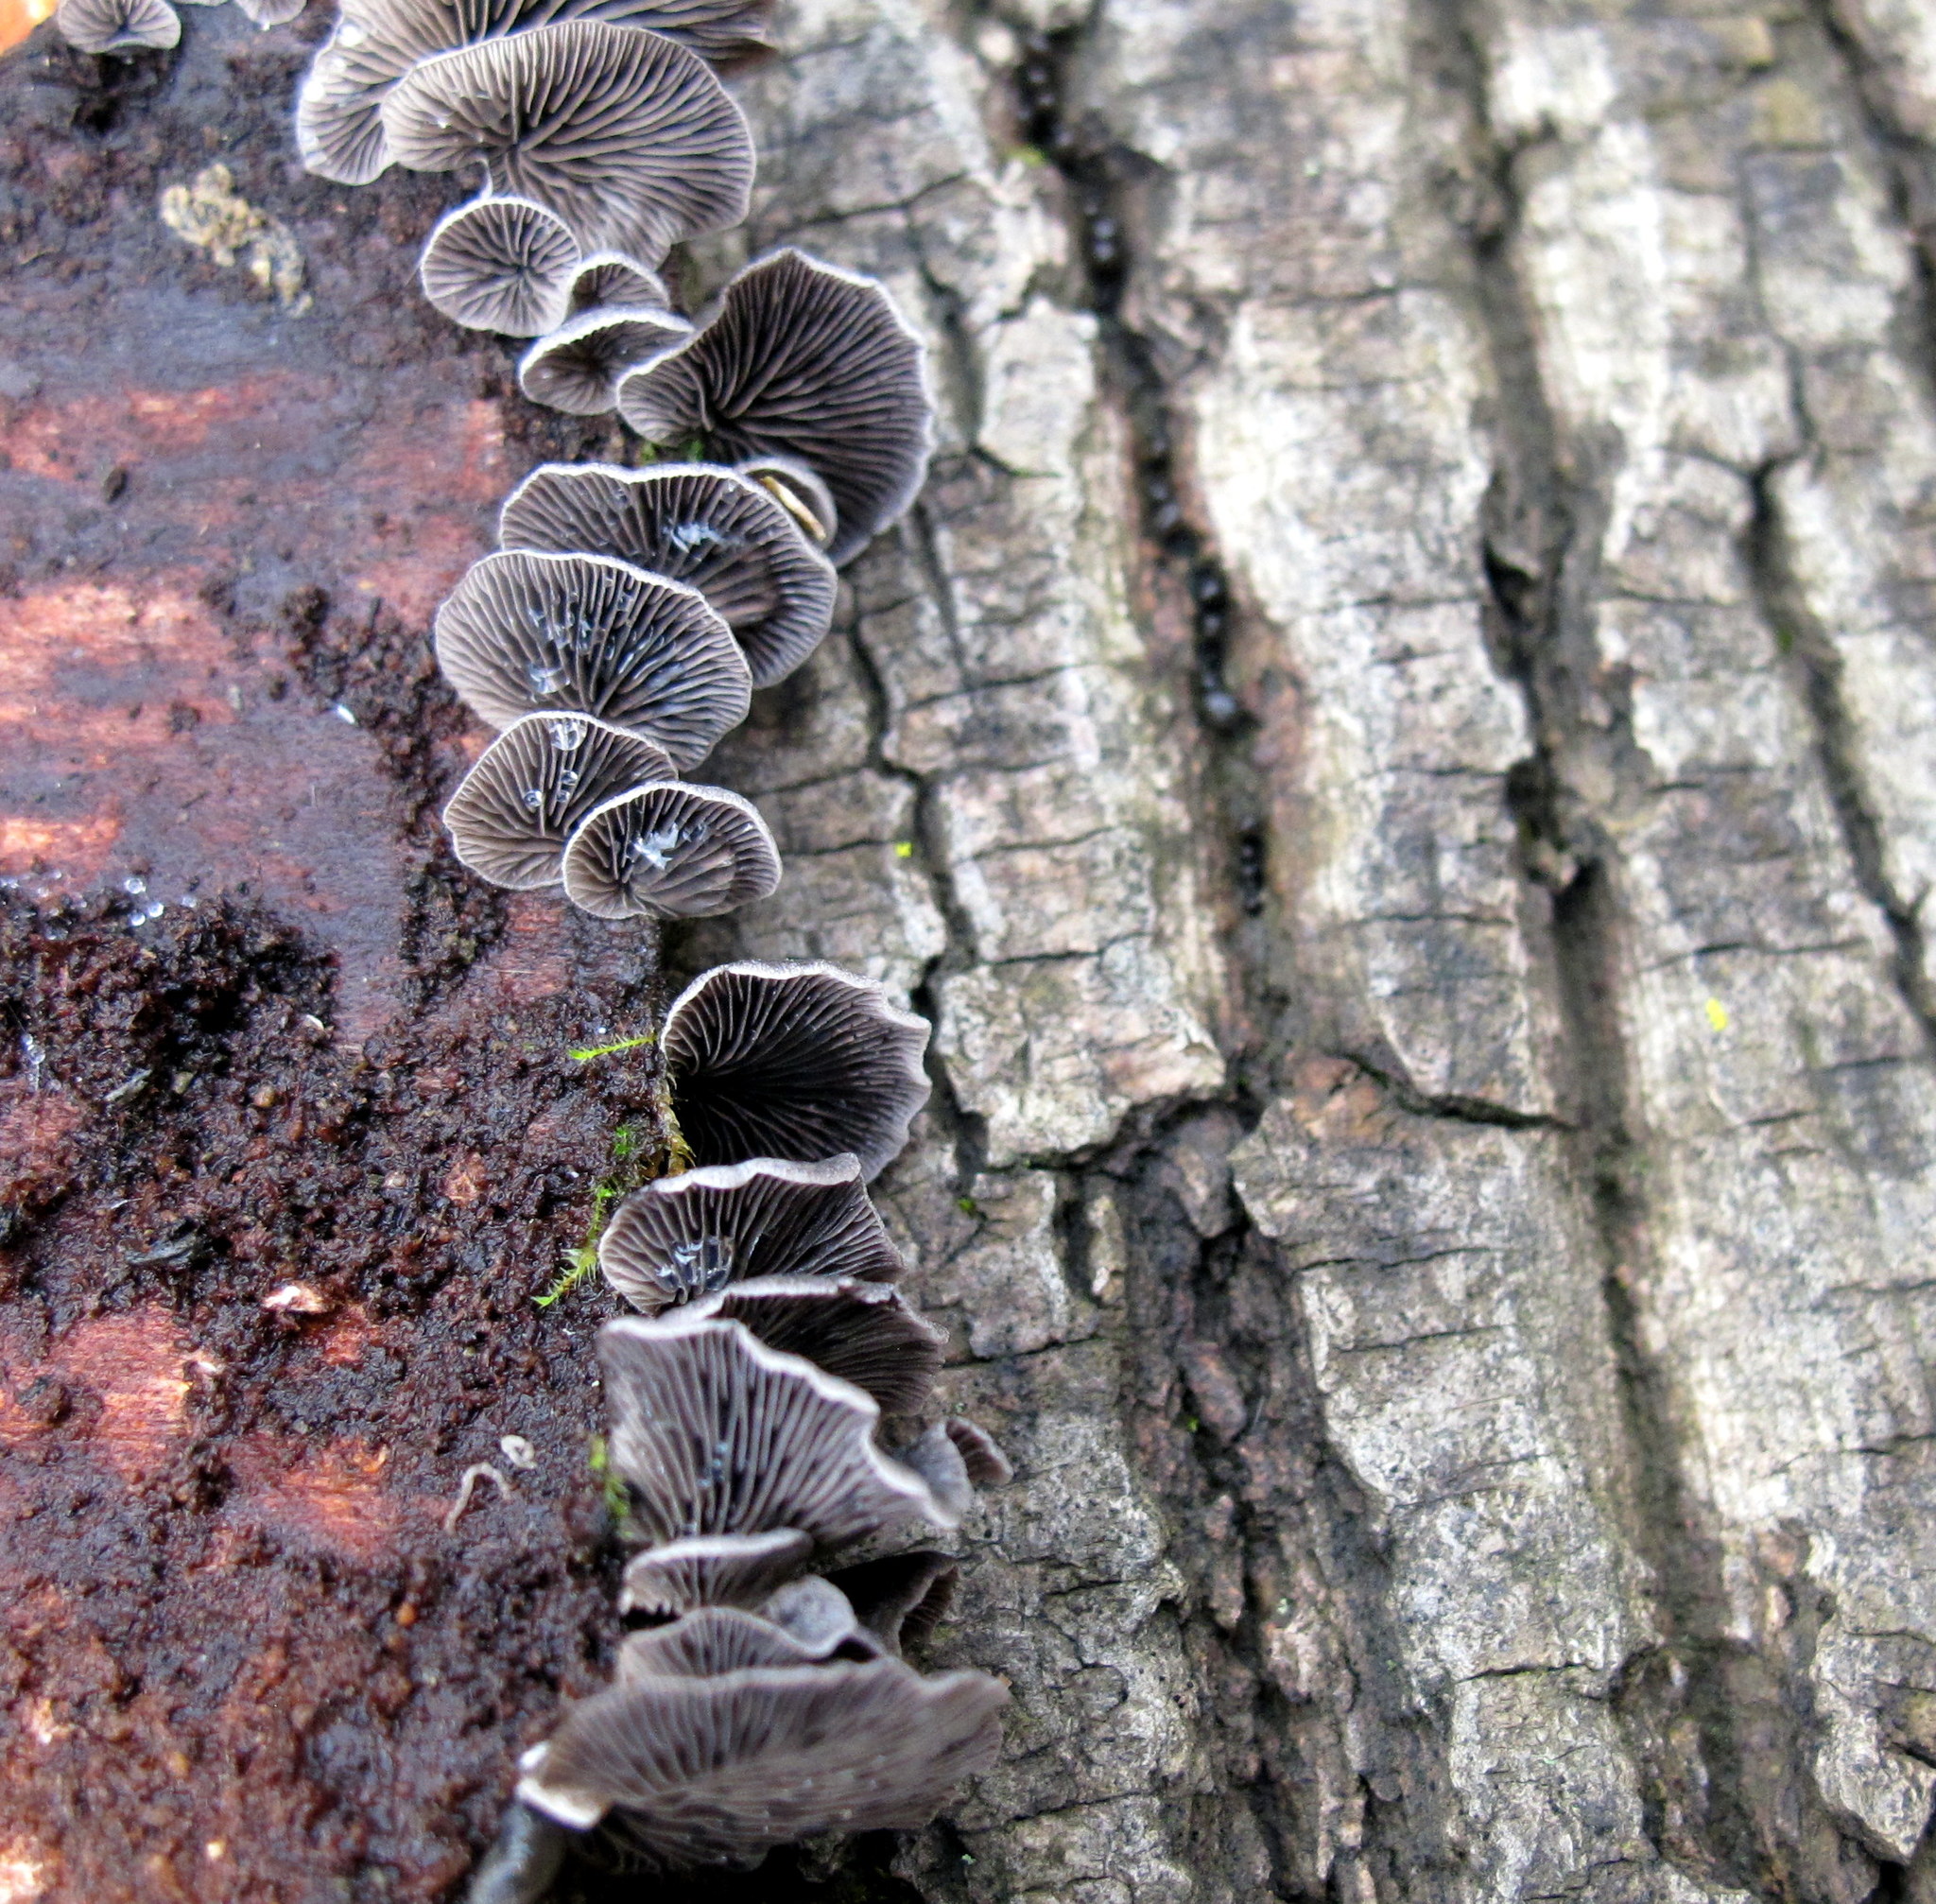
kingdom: Fungi
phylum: Basidiomycota
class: Agaricomycetes
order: Agaricales
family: Pleurotaceae
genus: Resupinatus
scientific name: Resupinatus applicatus
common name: Smoked oysterling
